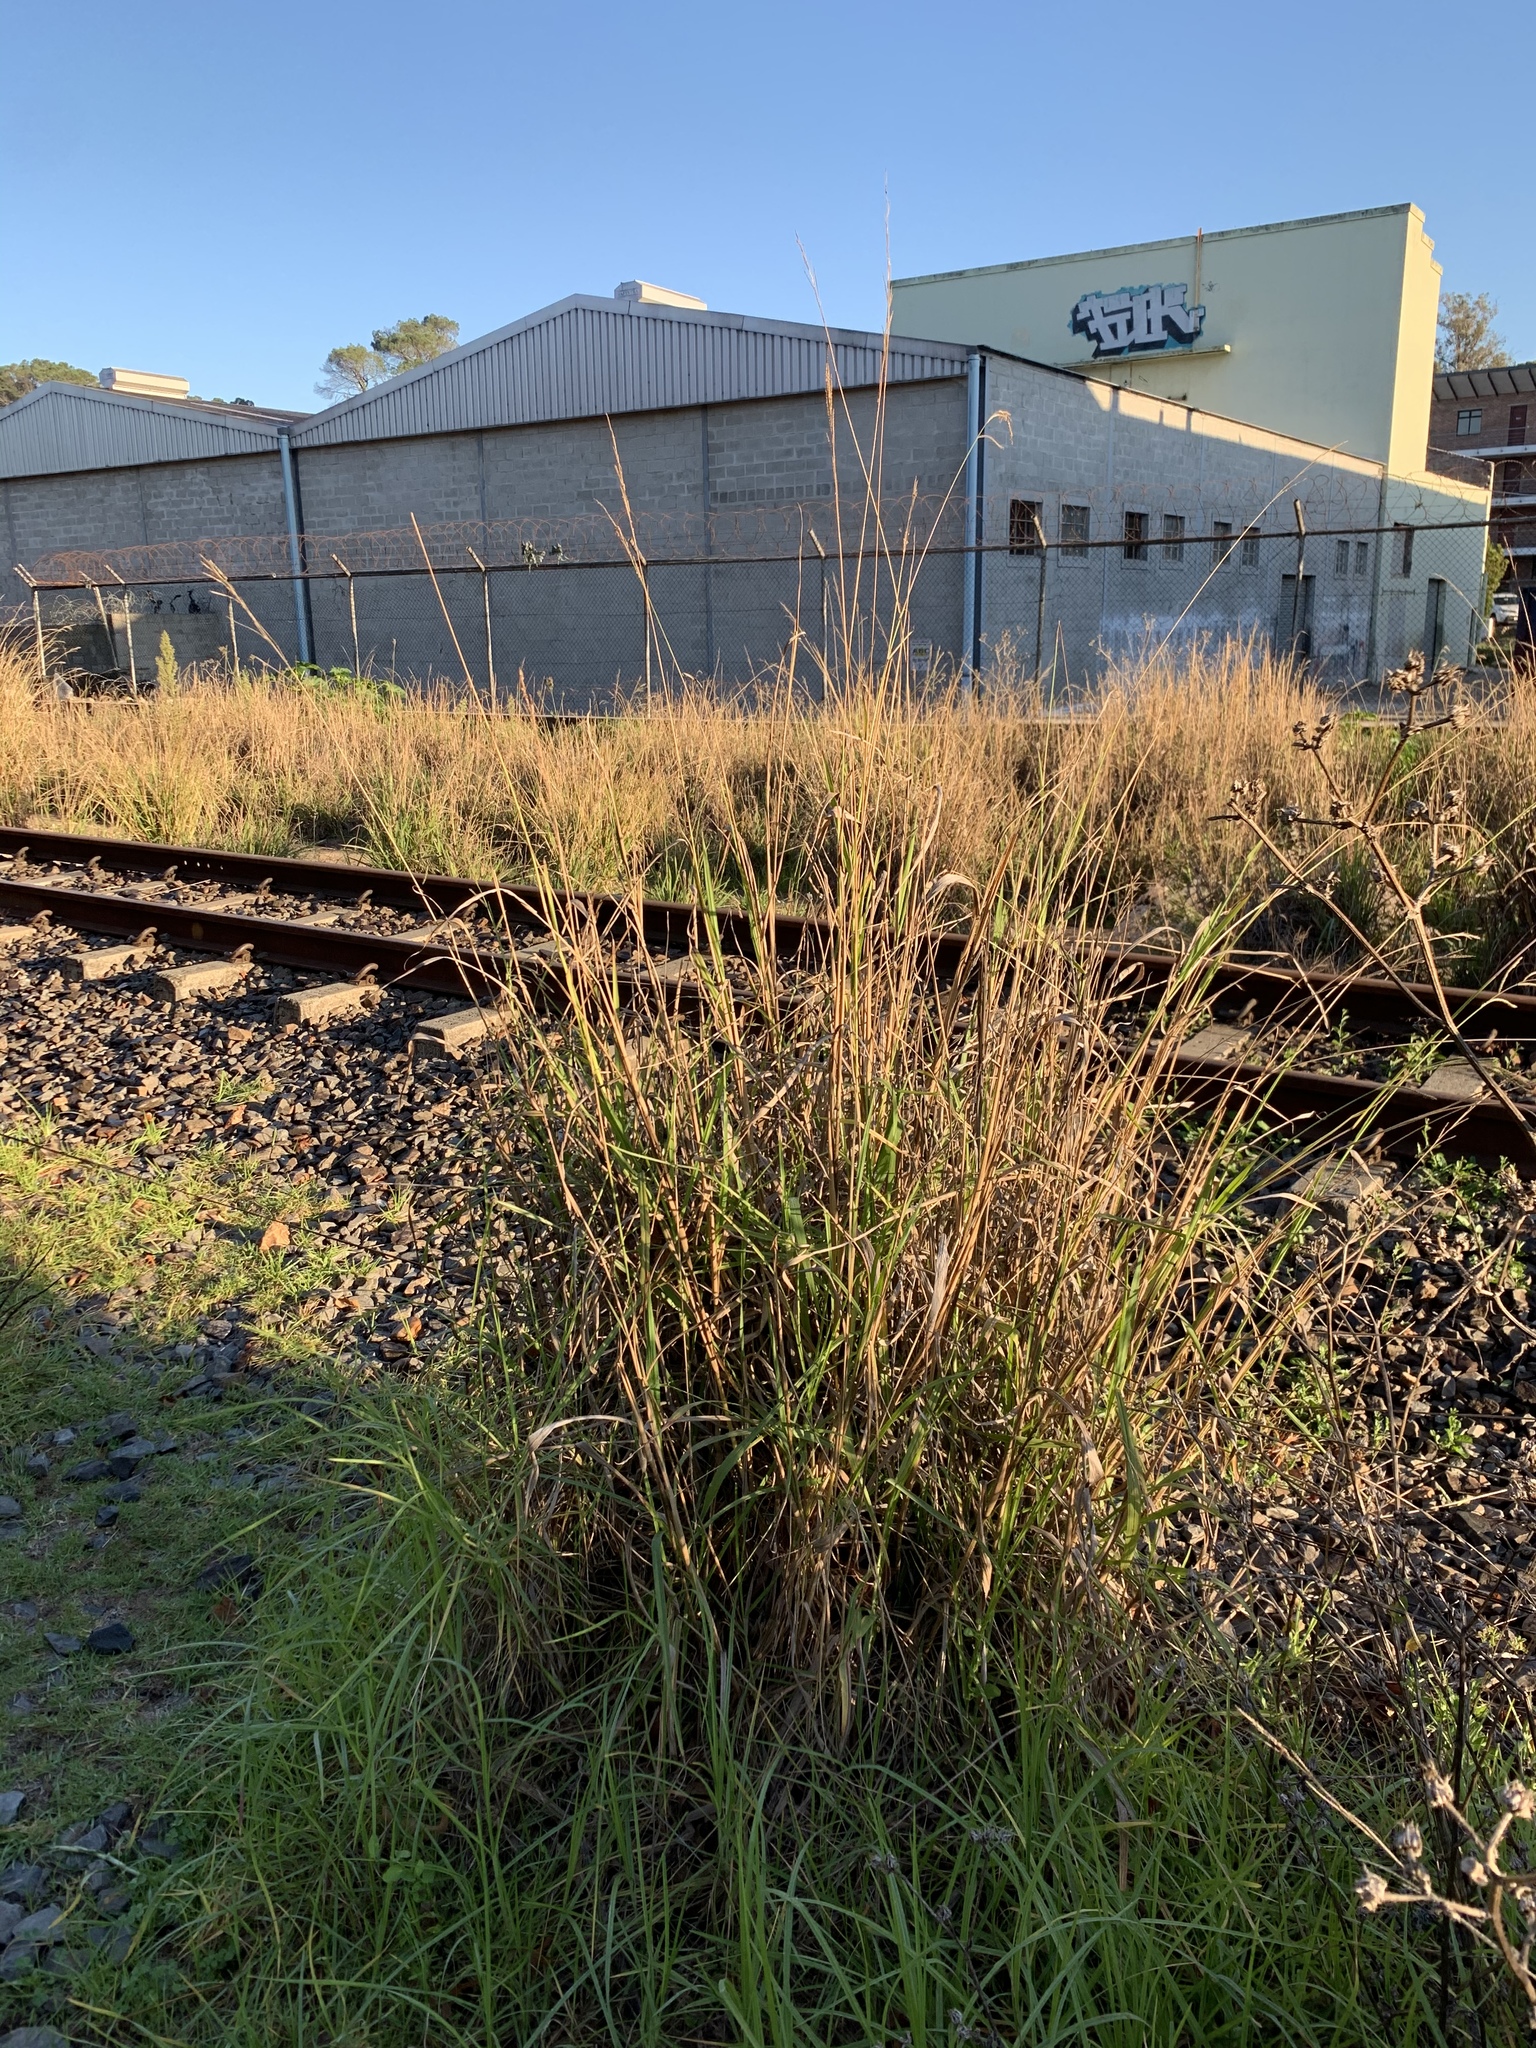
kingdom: Plantae
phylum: Tracheophyta
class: Liliopsida
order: Poales
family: Poaceae
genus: Paspalum
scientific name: Paspalum urvillei
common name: Vasey's grass
